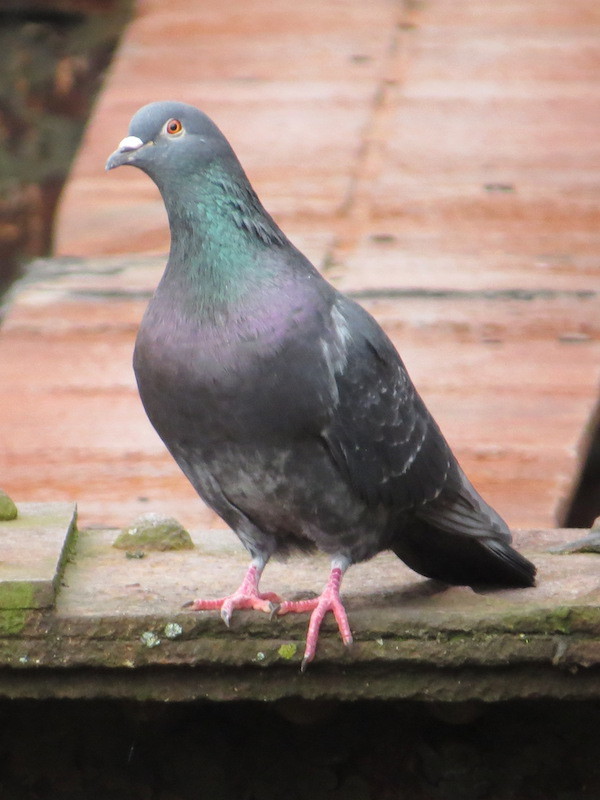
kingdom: Animalia
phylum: Chordata
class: Aves
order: Columbiformes
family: Columbidae
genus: Columba
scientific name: Columba livia
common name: Rock pigeon
